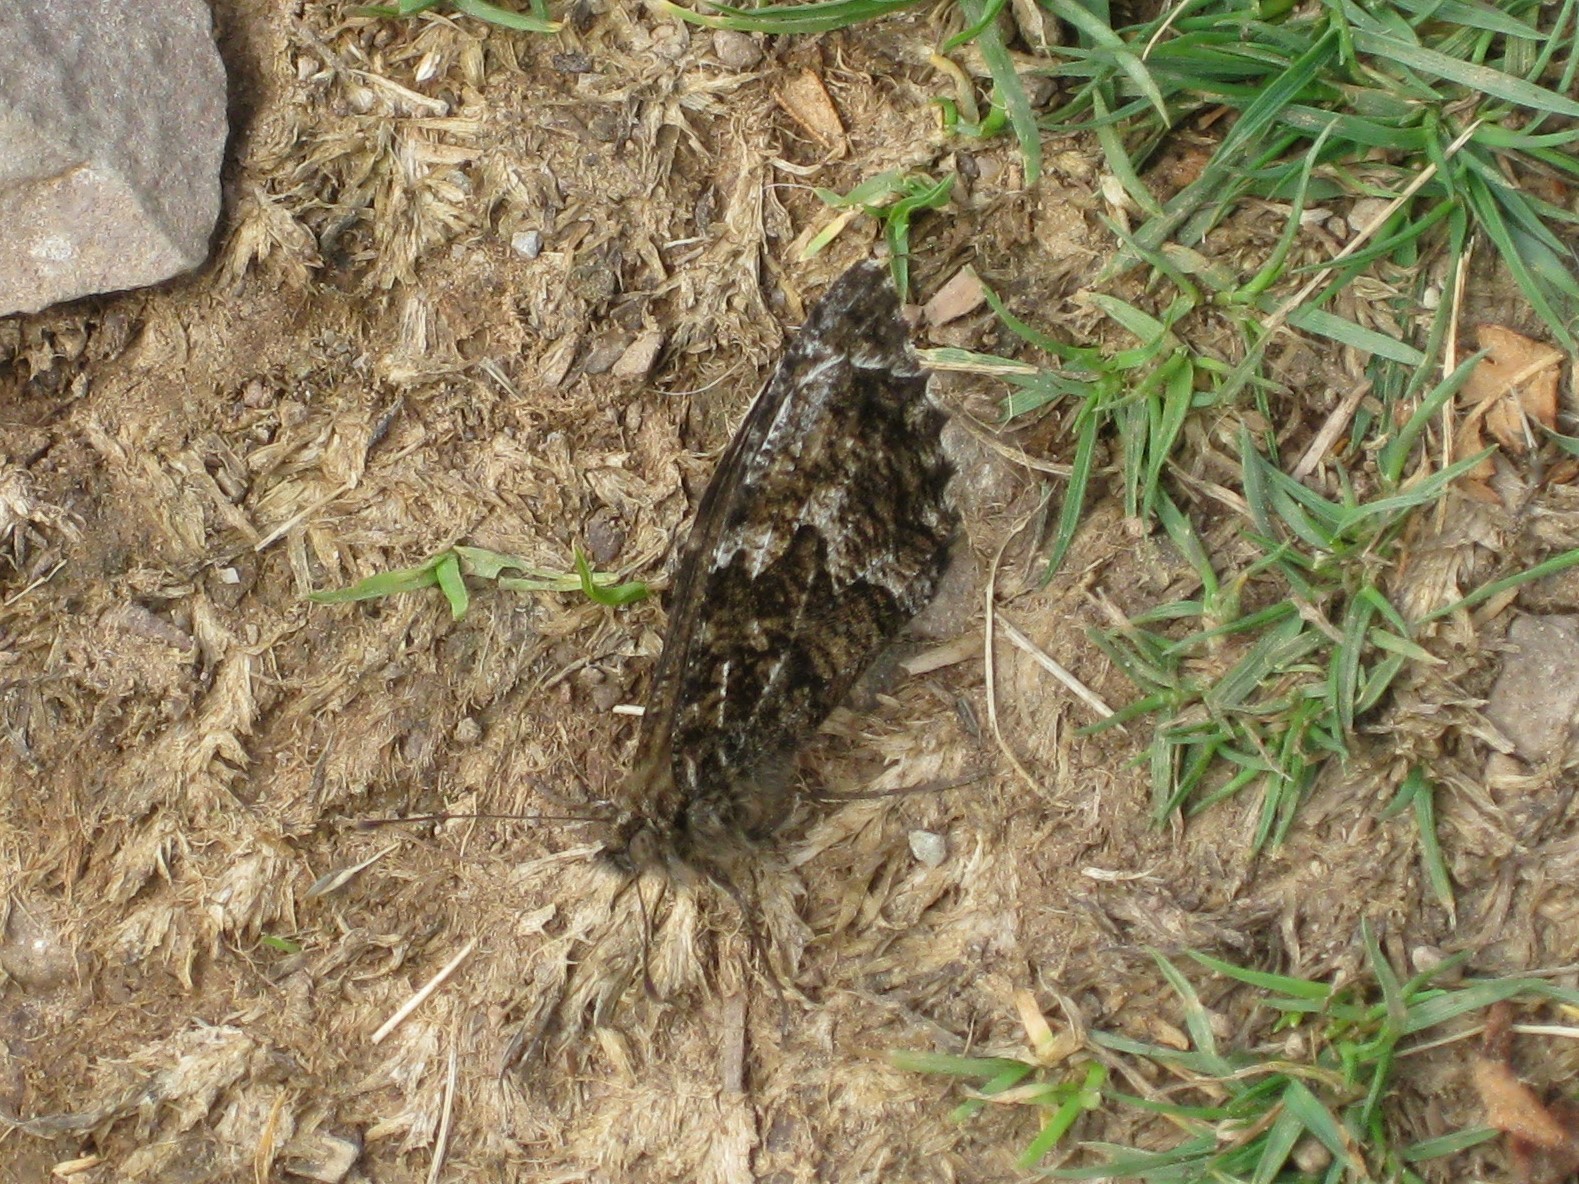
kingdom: Animalia
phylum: Arthropoda
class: Insecta
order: Lepidoptera
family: Nymphalidae
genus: Hipparchia
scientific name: Hipparchia semele
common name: Grayling
